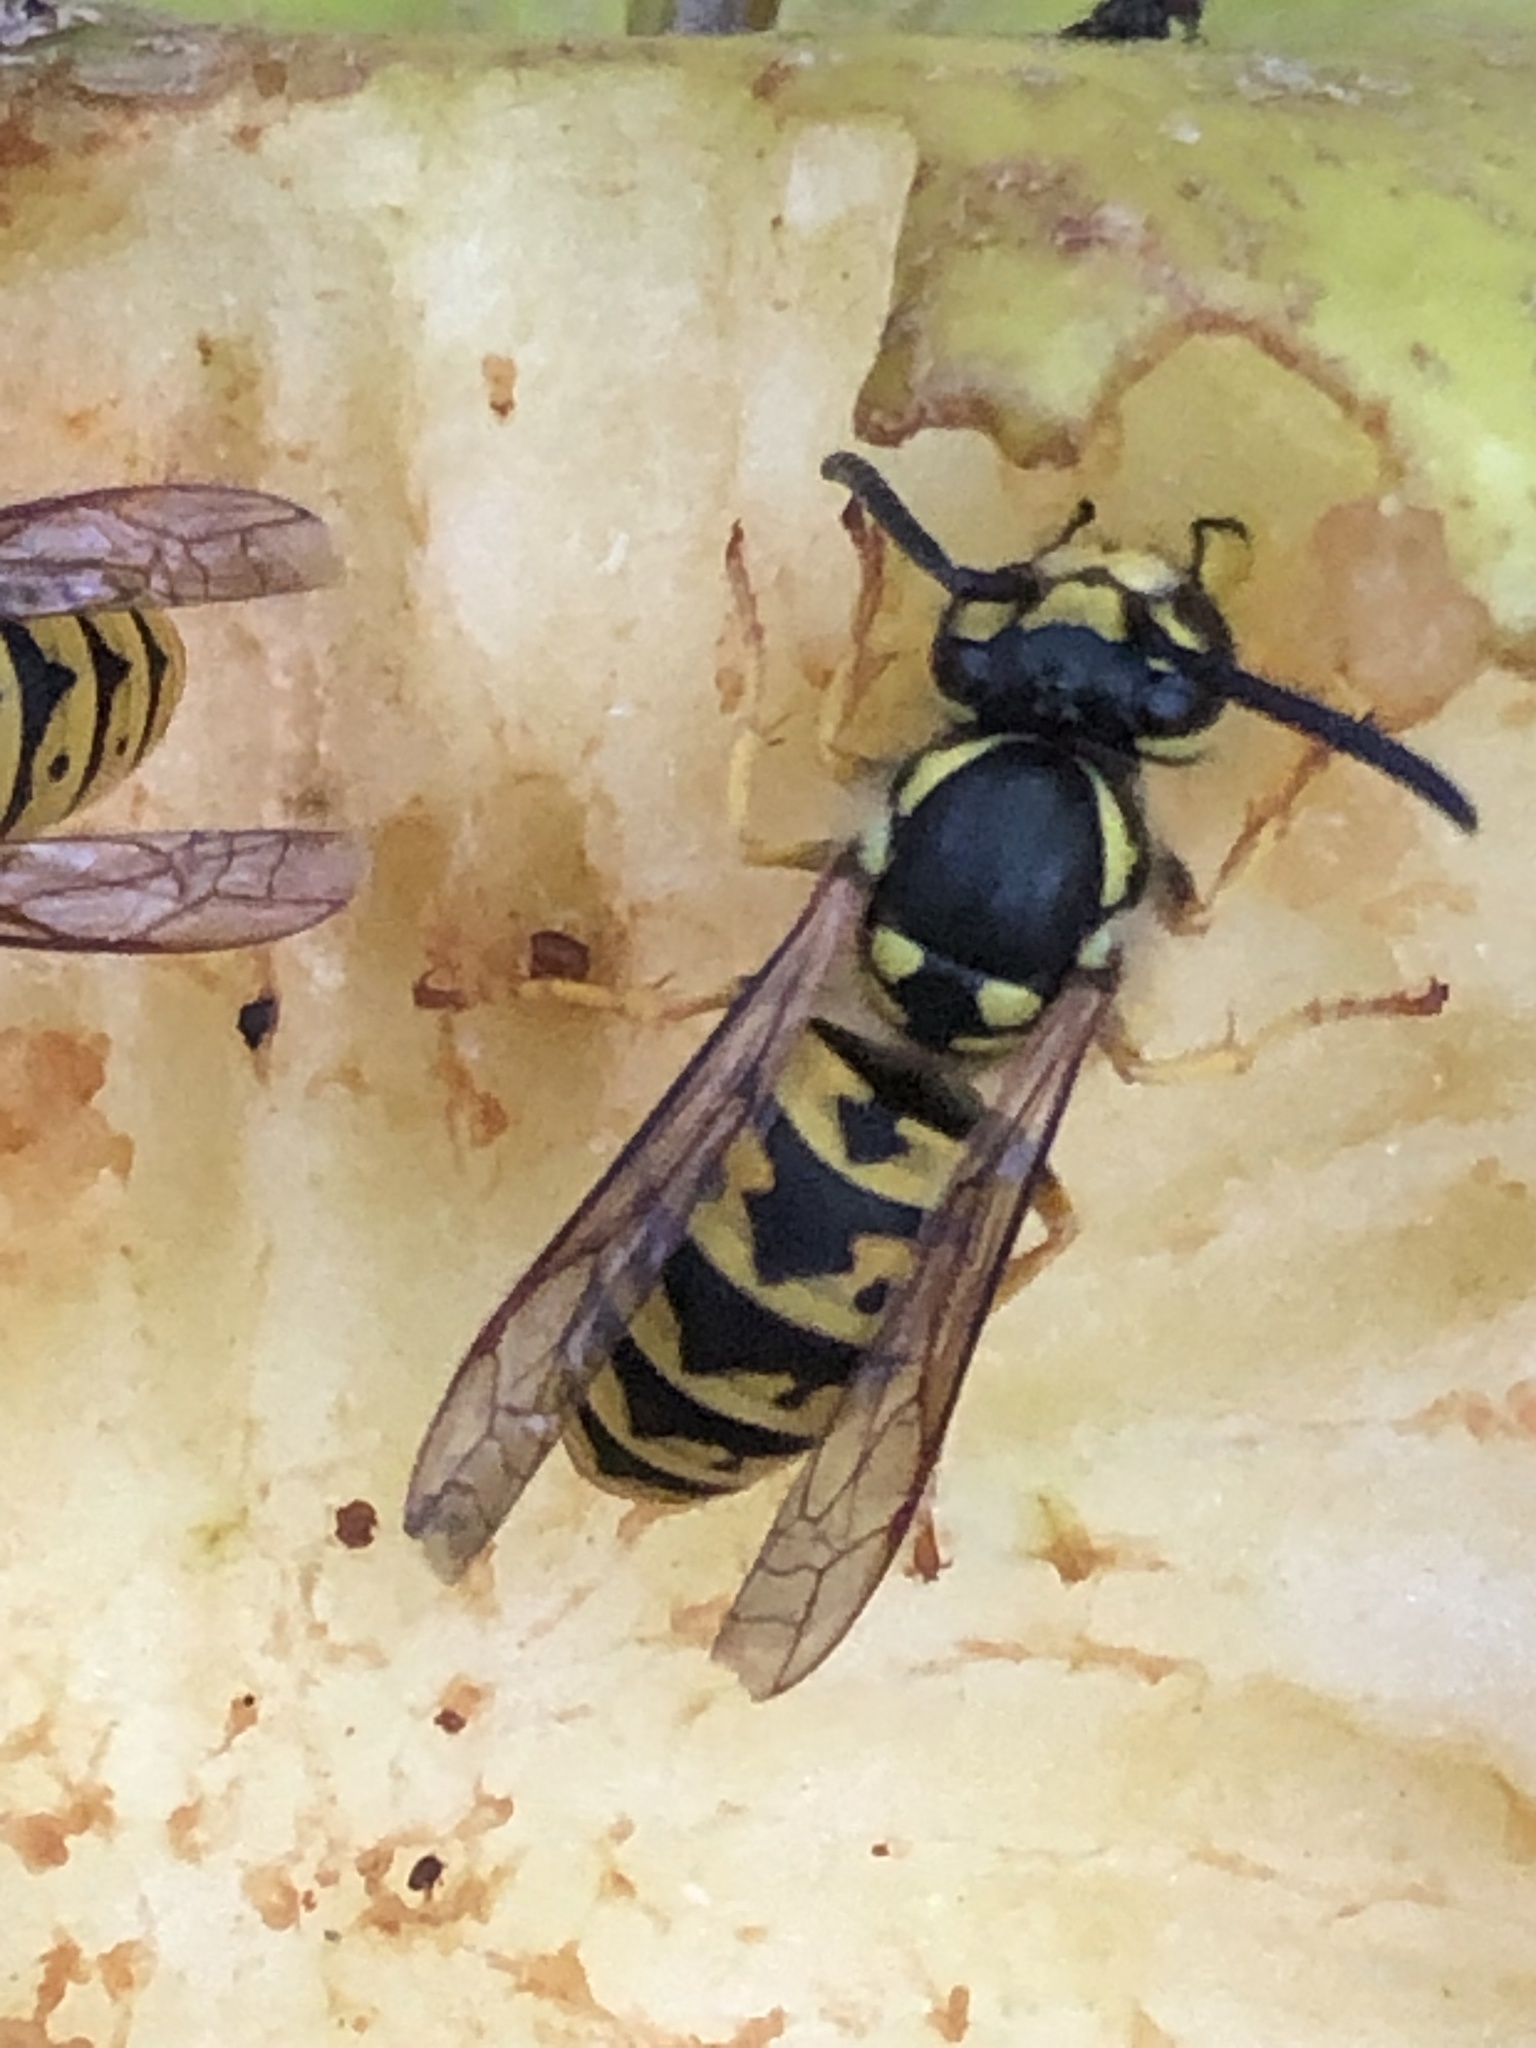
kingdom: Animalia
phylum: Arthropoda
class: Insecta
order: Hymenoptera
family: Vespidae
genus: Vespula
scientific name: Vespula germanica
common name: German wasp
